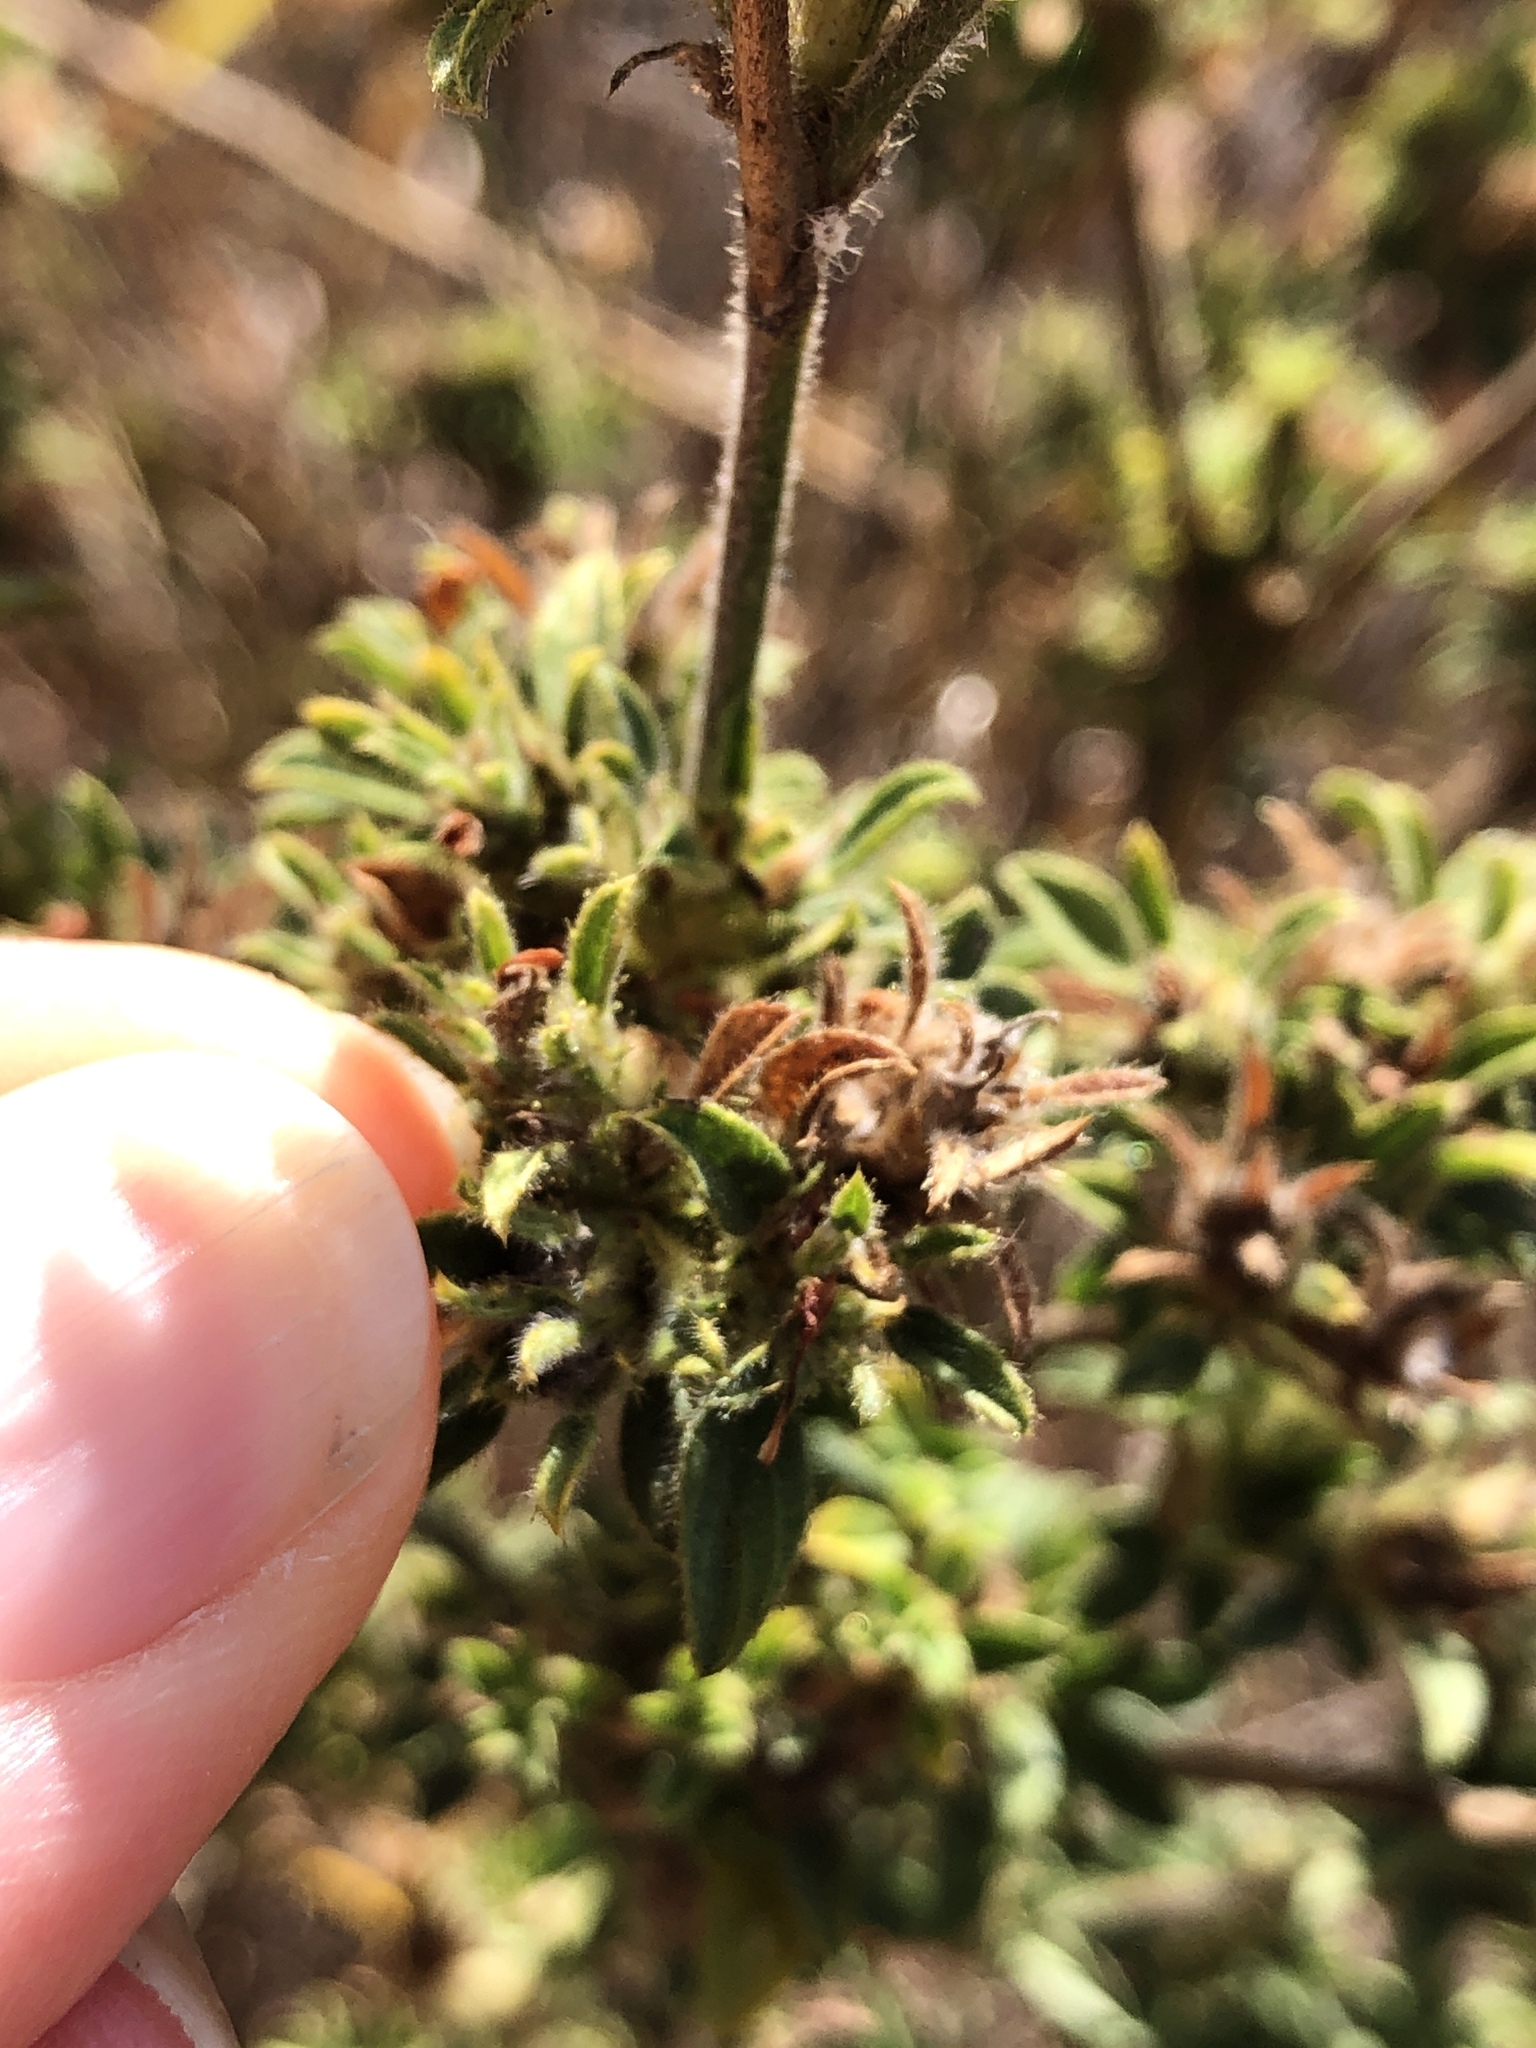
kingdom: Plantae
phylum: Tracheophyta
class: Magnoliopsida
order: Fabales
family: Fabaceae
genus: Stylosanthes
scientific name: Stylosanthes scabra
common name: Pencilflower
